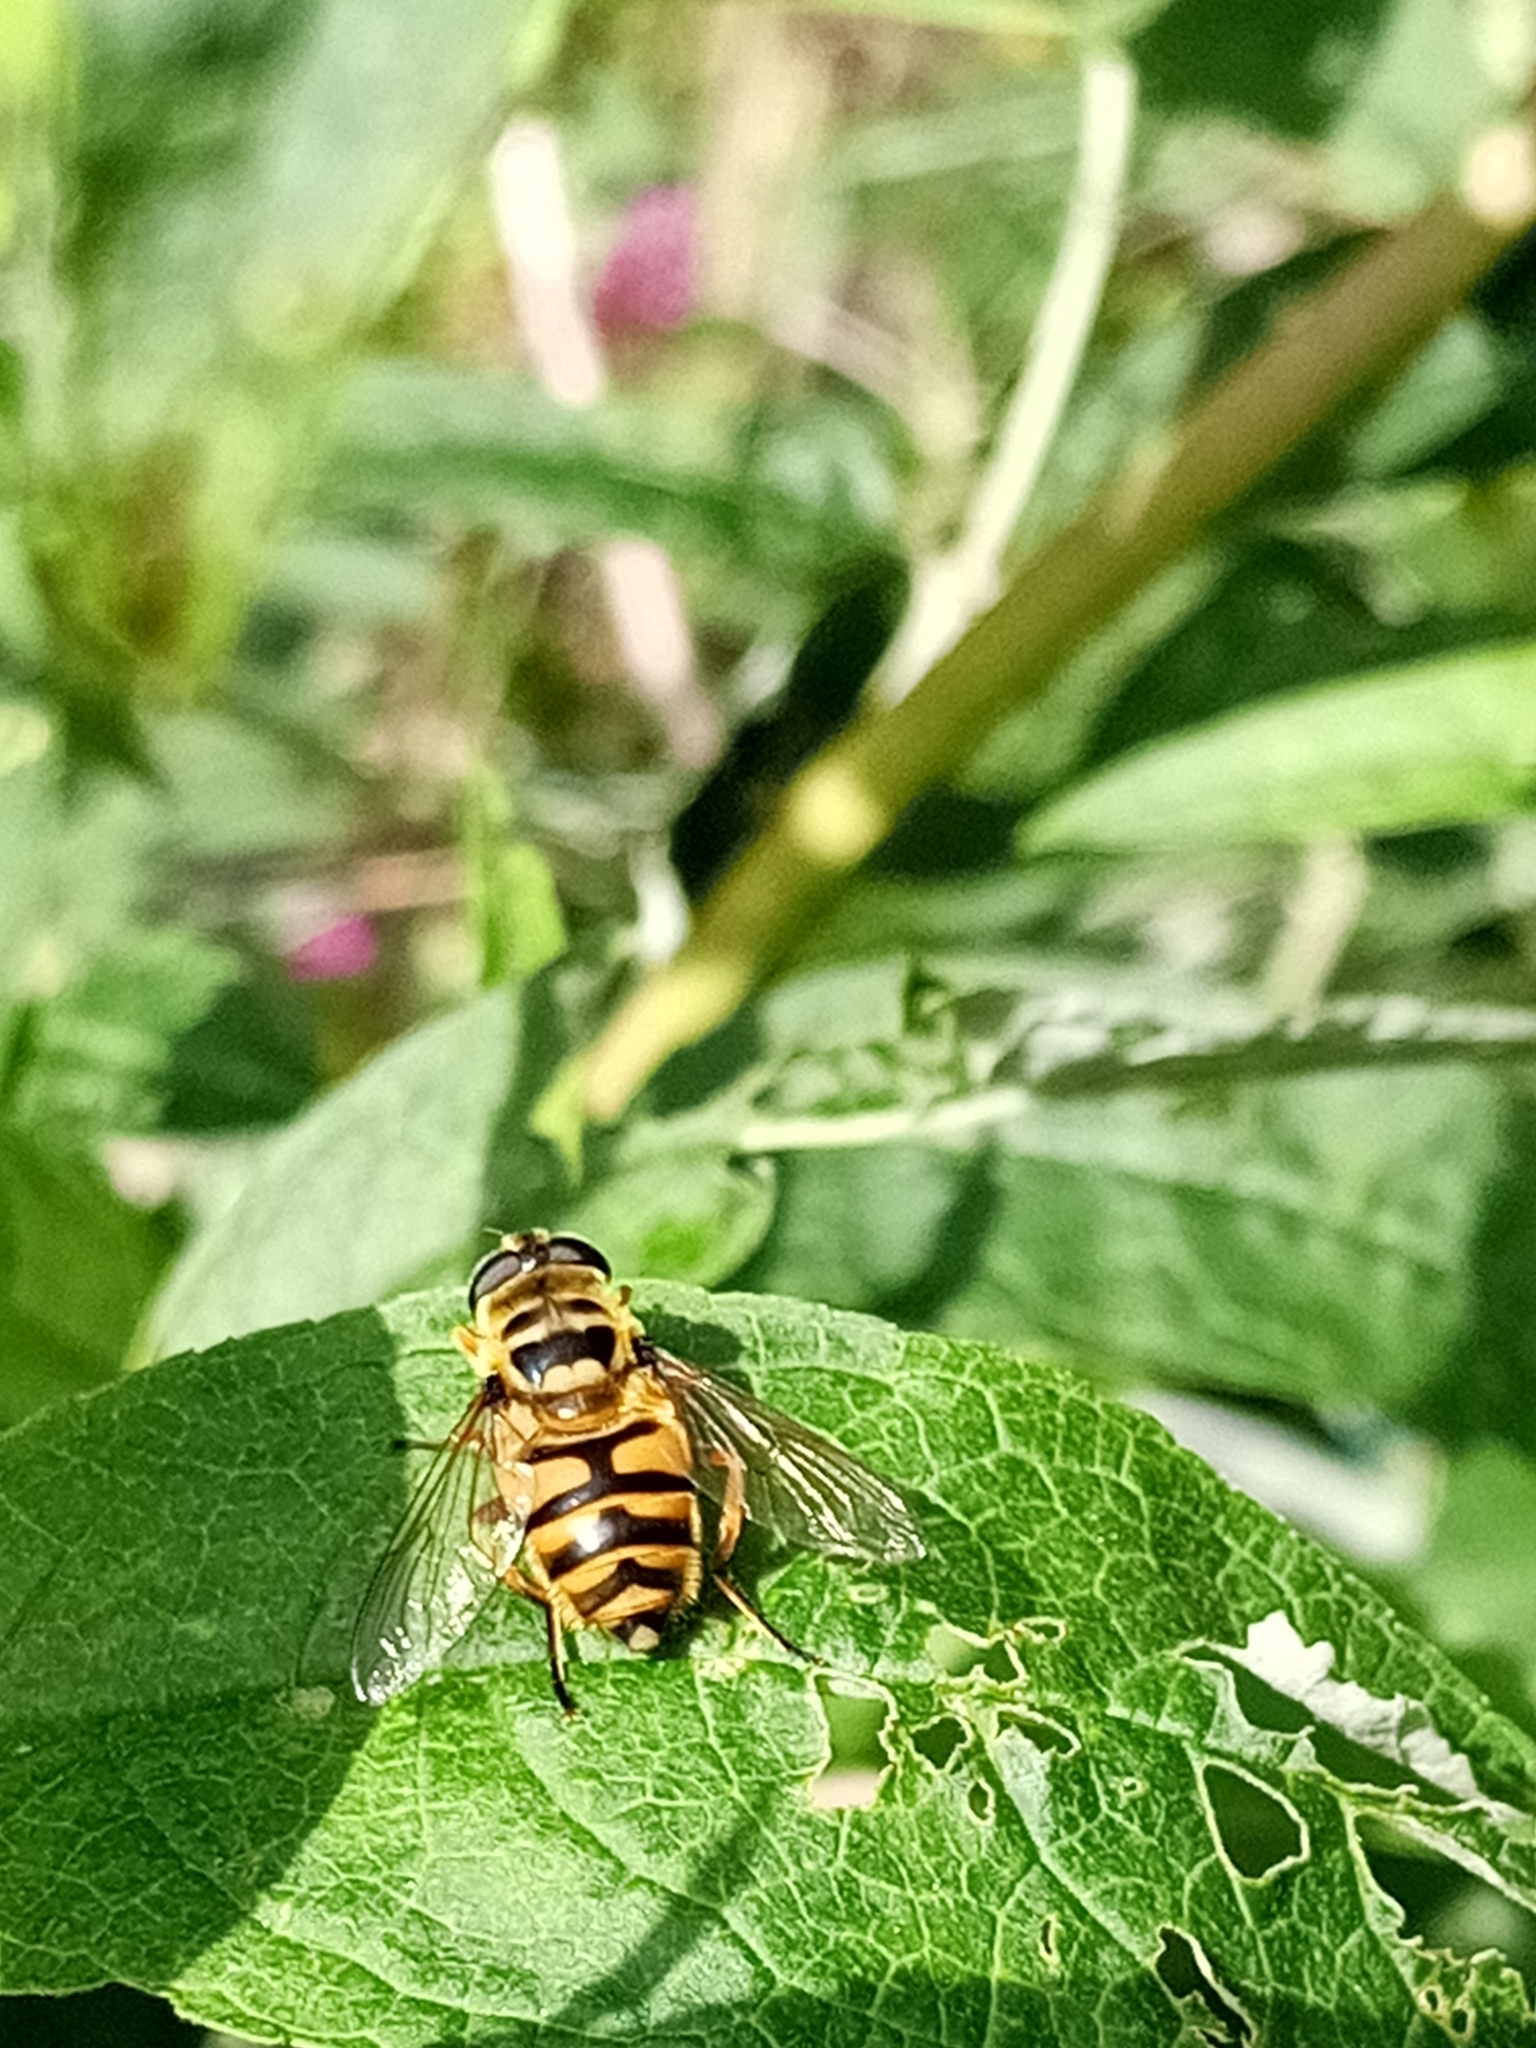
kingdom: Animalia
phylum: Arthropoda
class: Insecta
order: Diptera
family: Syrphidae
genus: Myathropa
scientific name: Myathropa florea
